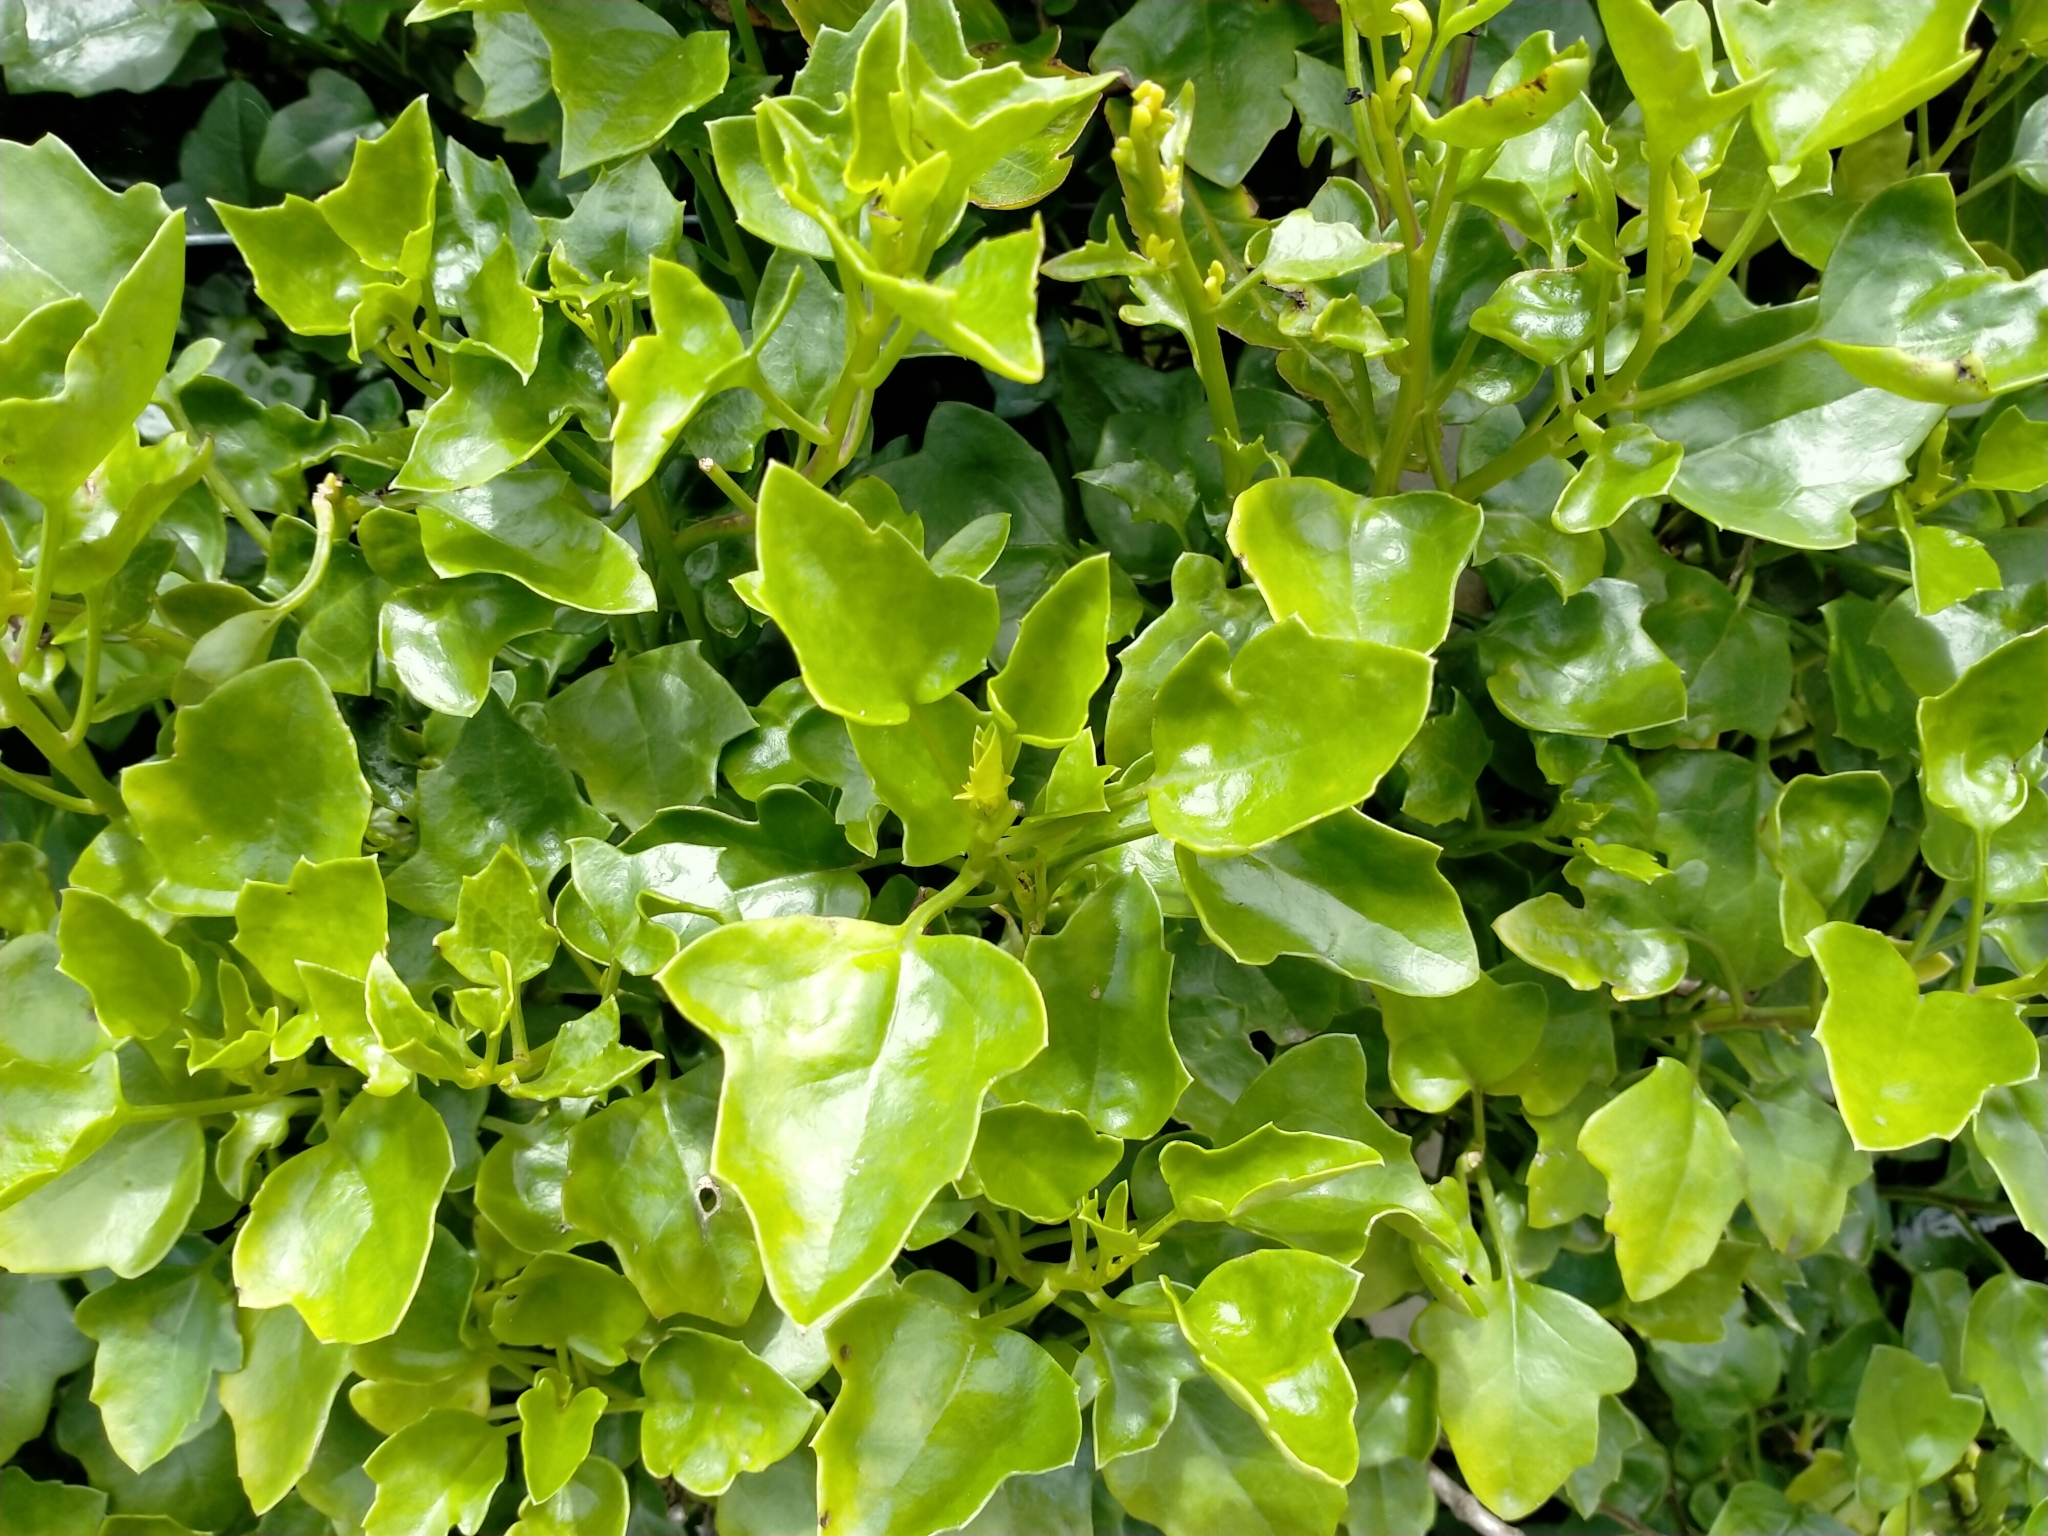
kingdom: Plantae
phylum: Tracheophyta
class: Magnoliopsida
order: Asterales
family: Asteraceae
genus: Senecio
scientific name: Senecio angulatus
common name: Climbing groundsel
